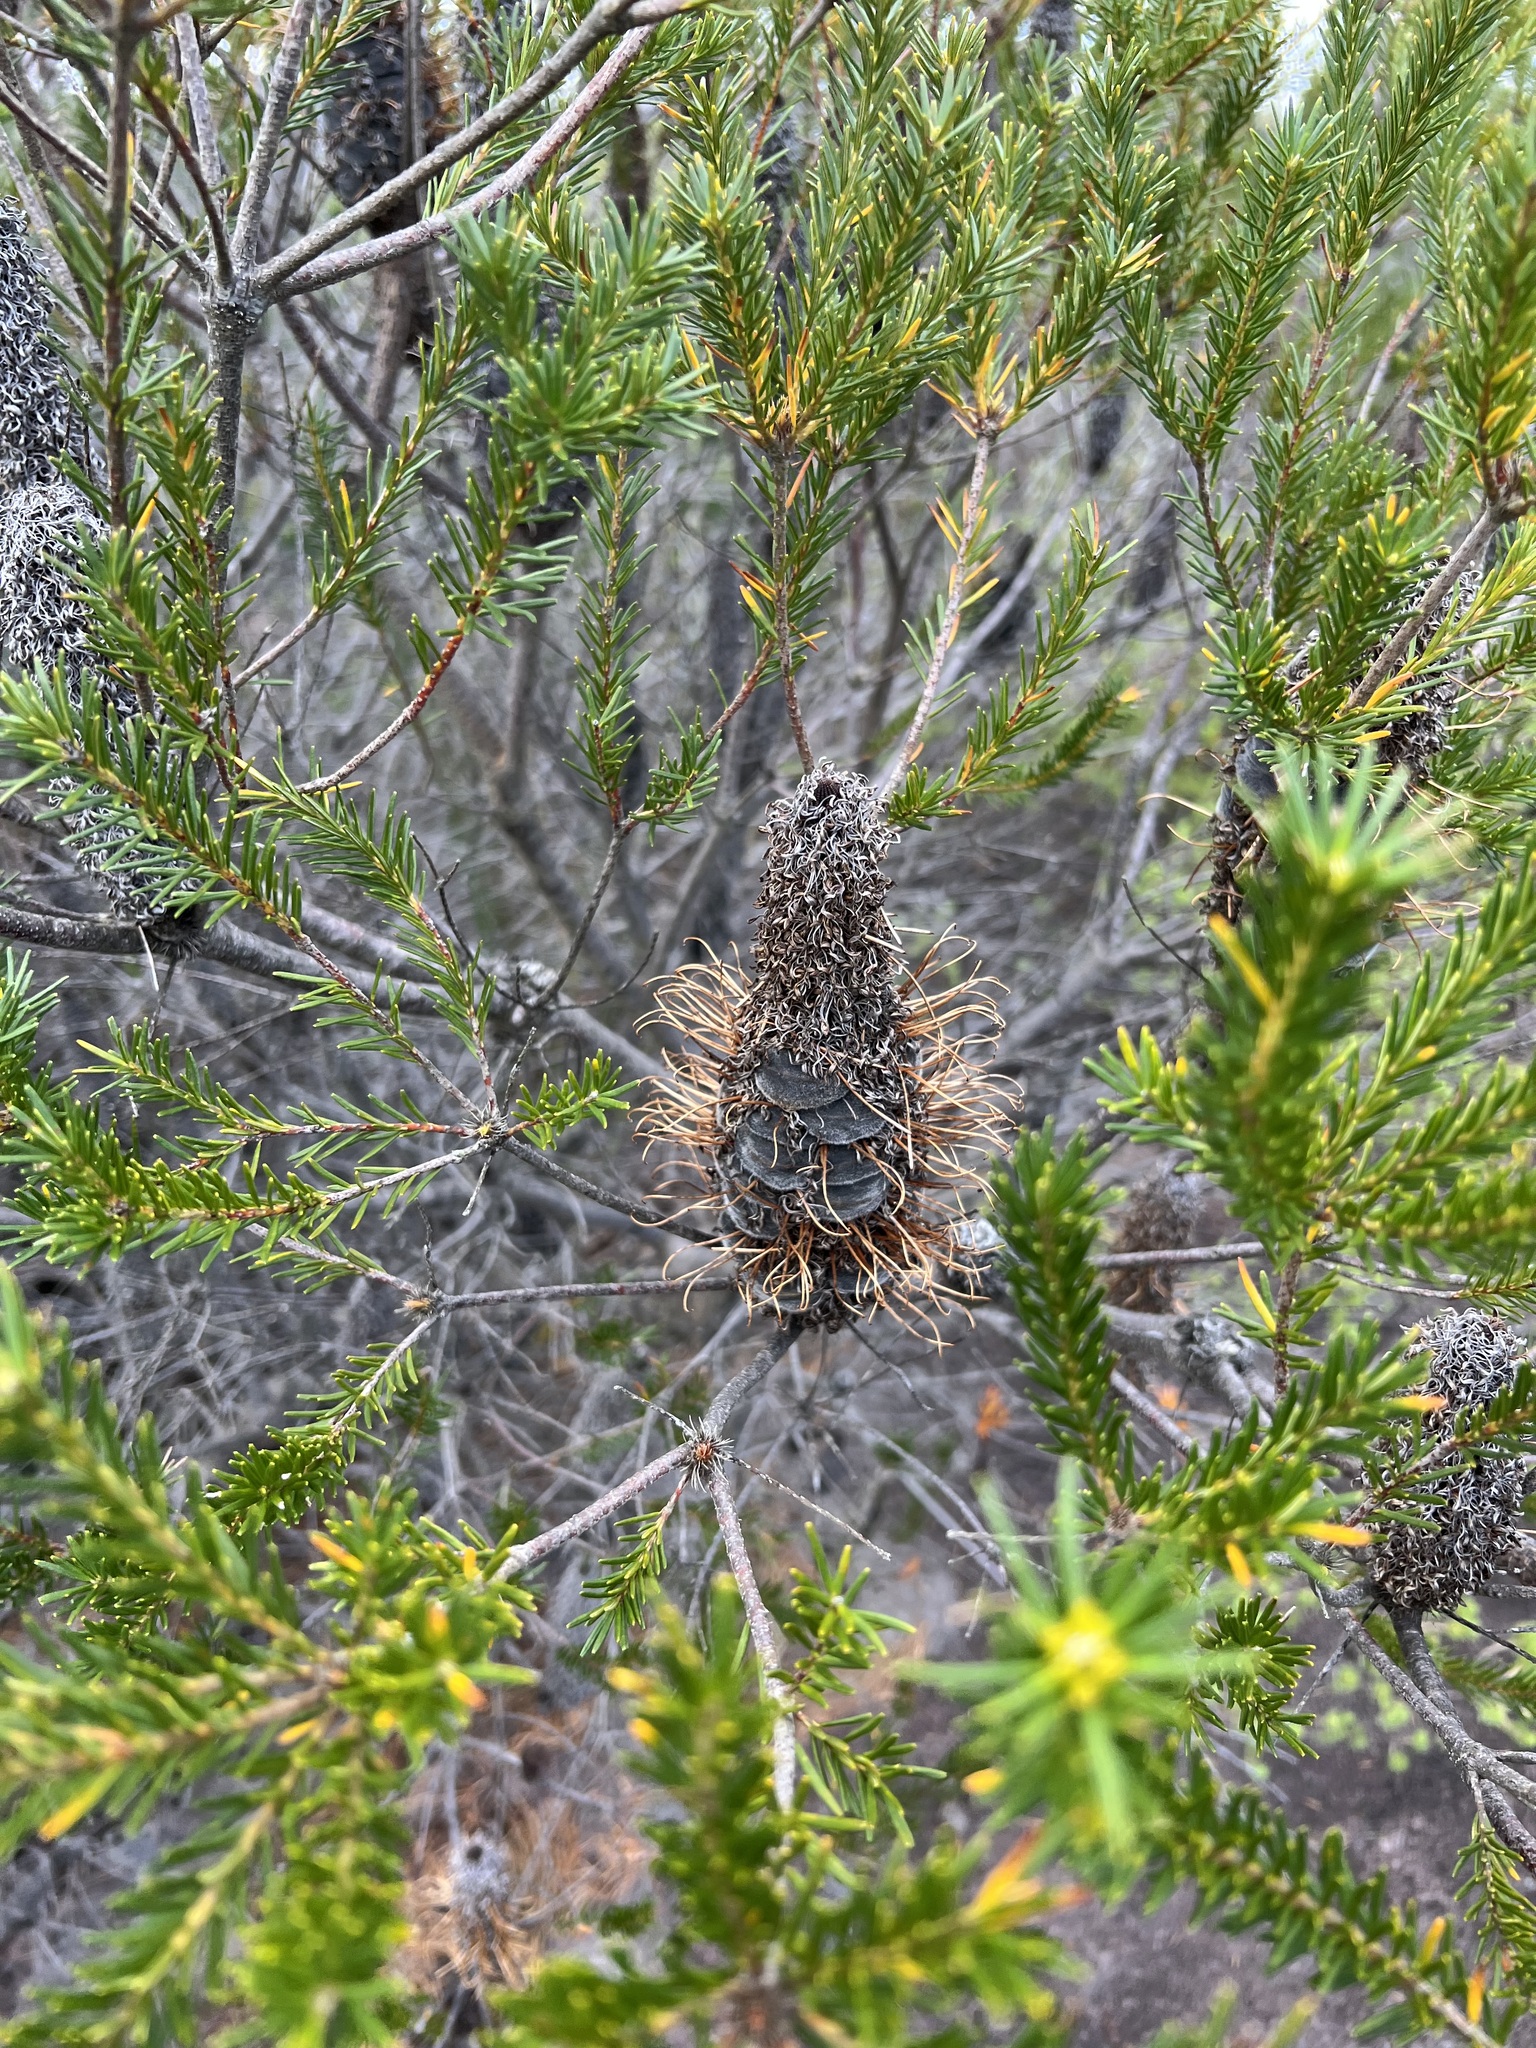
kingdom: Plantae
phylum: Tracheophyta
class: Magnoliopsida
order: Proteales
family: Proteaceae
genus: Banksia
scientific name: Banksia ericifolia
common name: Heath-leaf banksia
